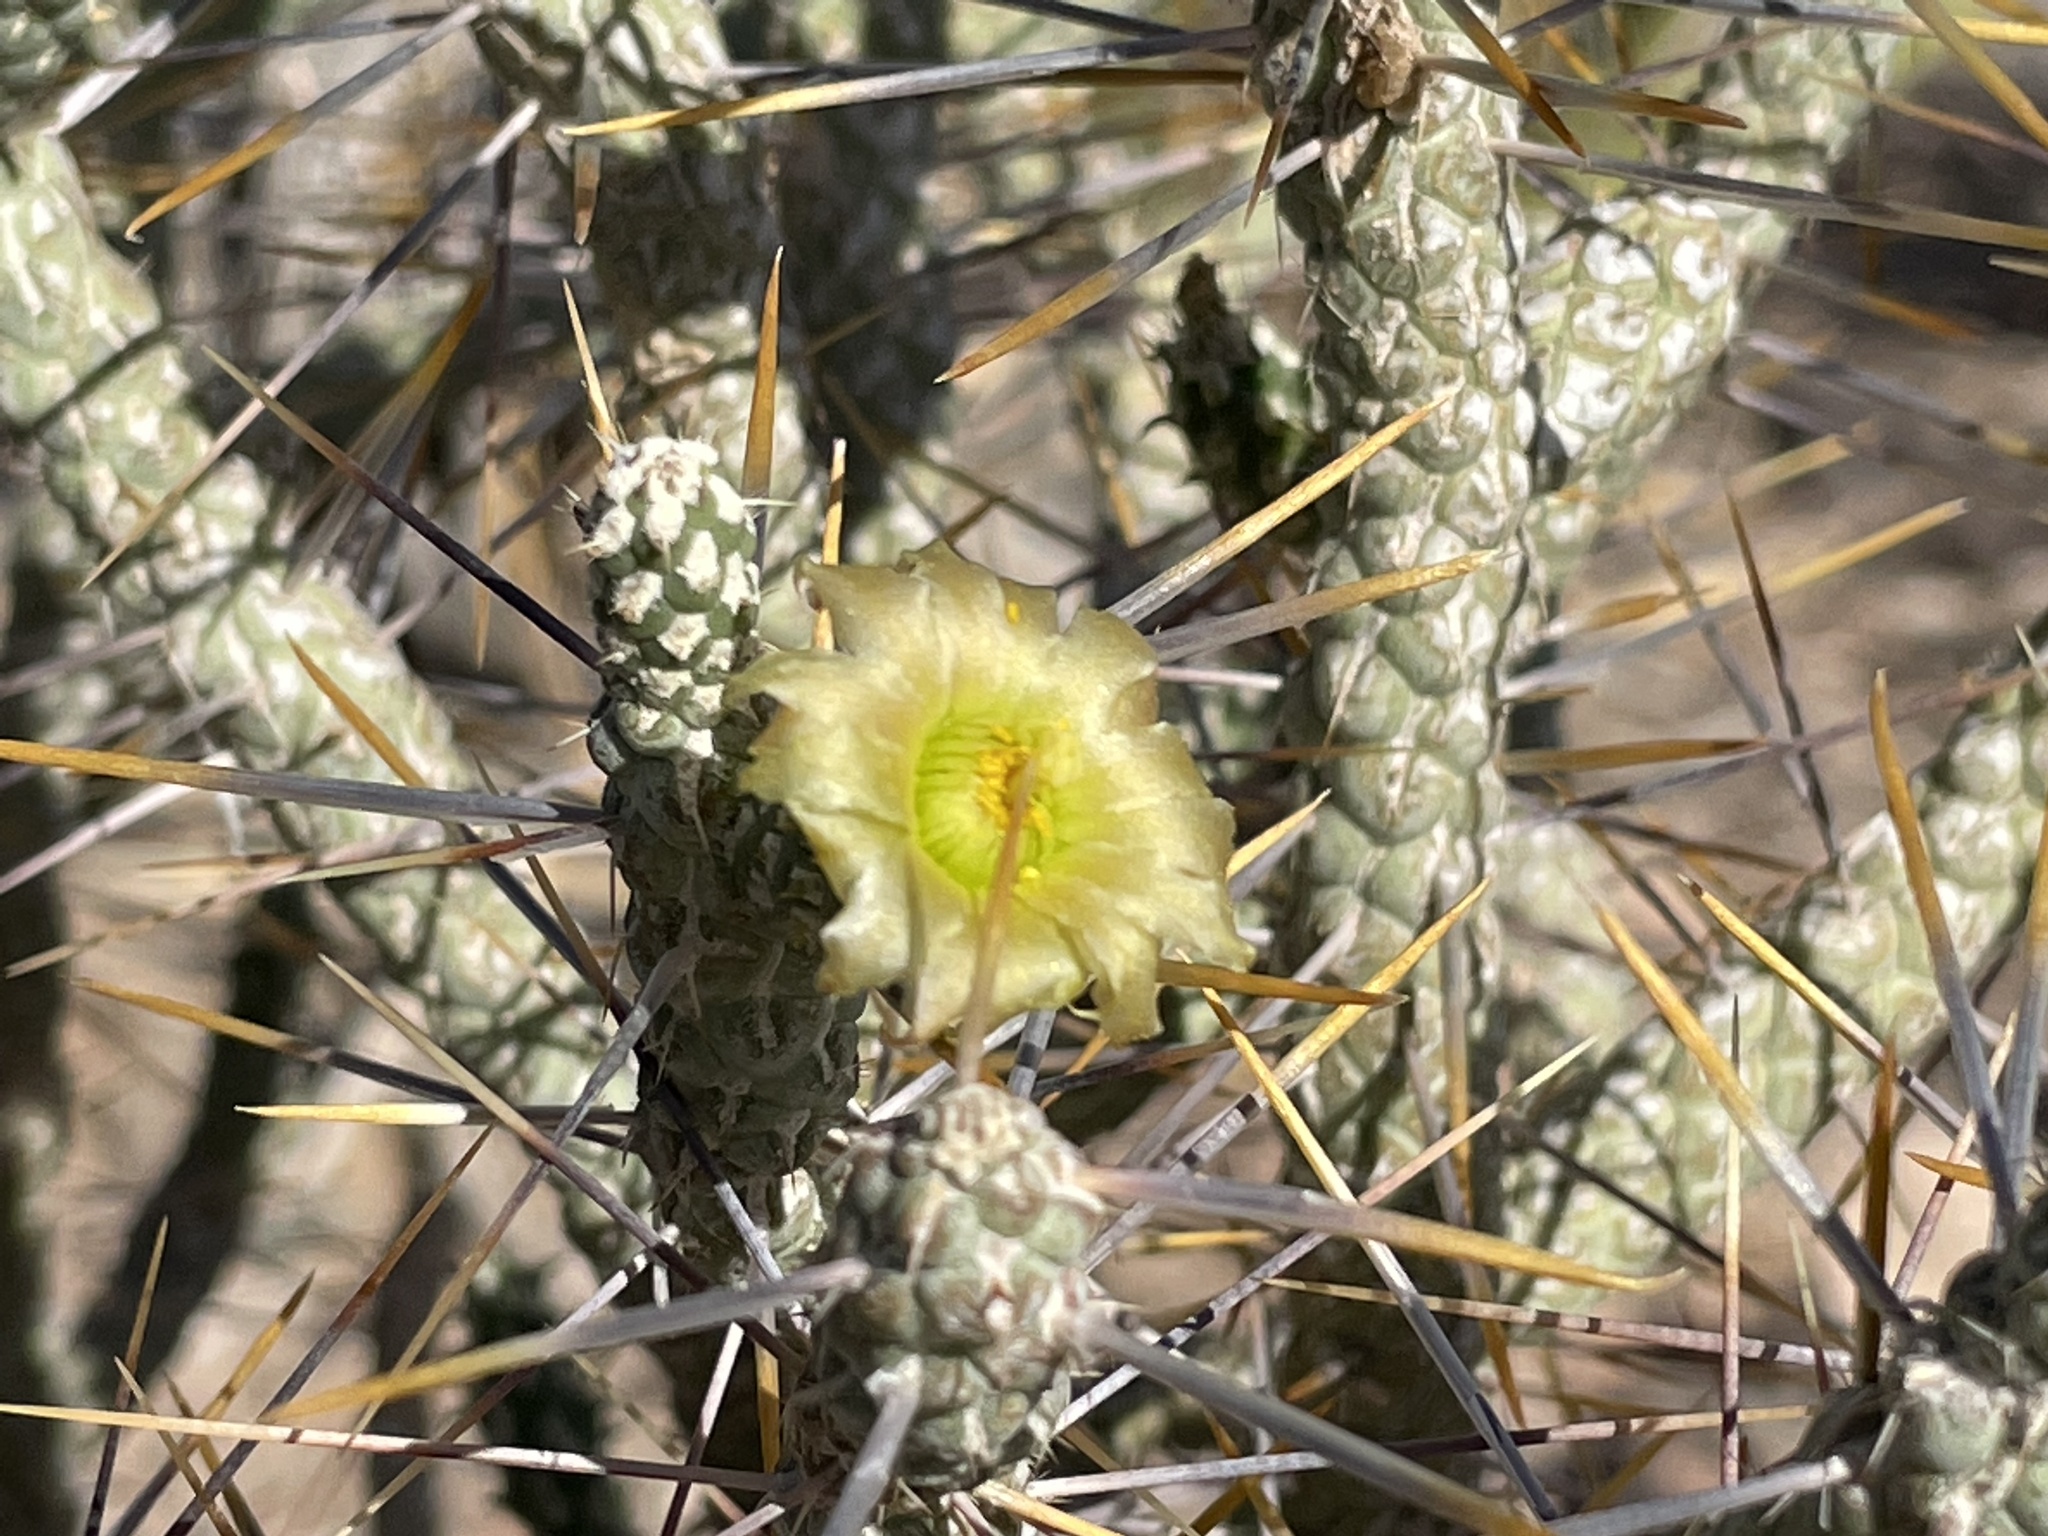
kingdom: Plantae
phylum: Tracheophyta
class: Magnoliopsida
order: Caryophyllales
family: Cactaceae
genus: Cylindropuntia
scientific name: Cylindropuntia ramosissima
